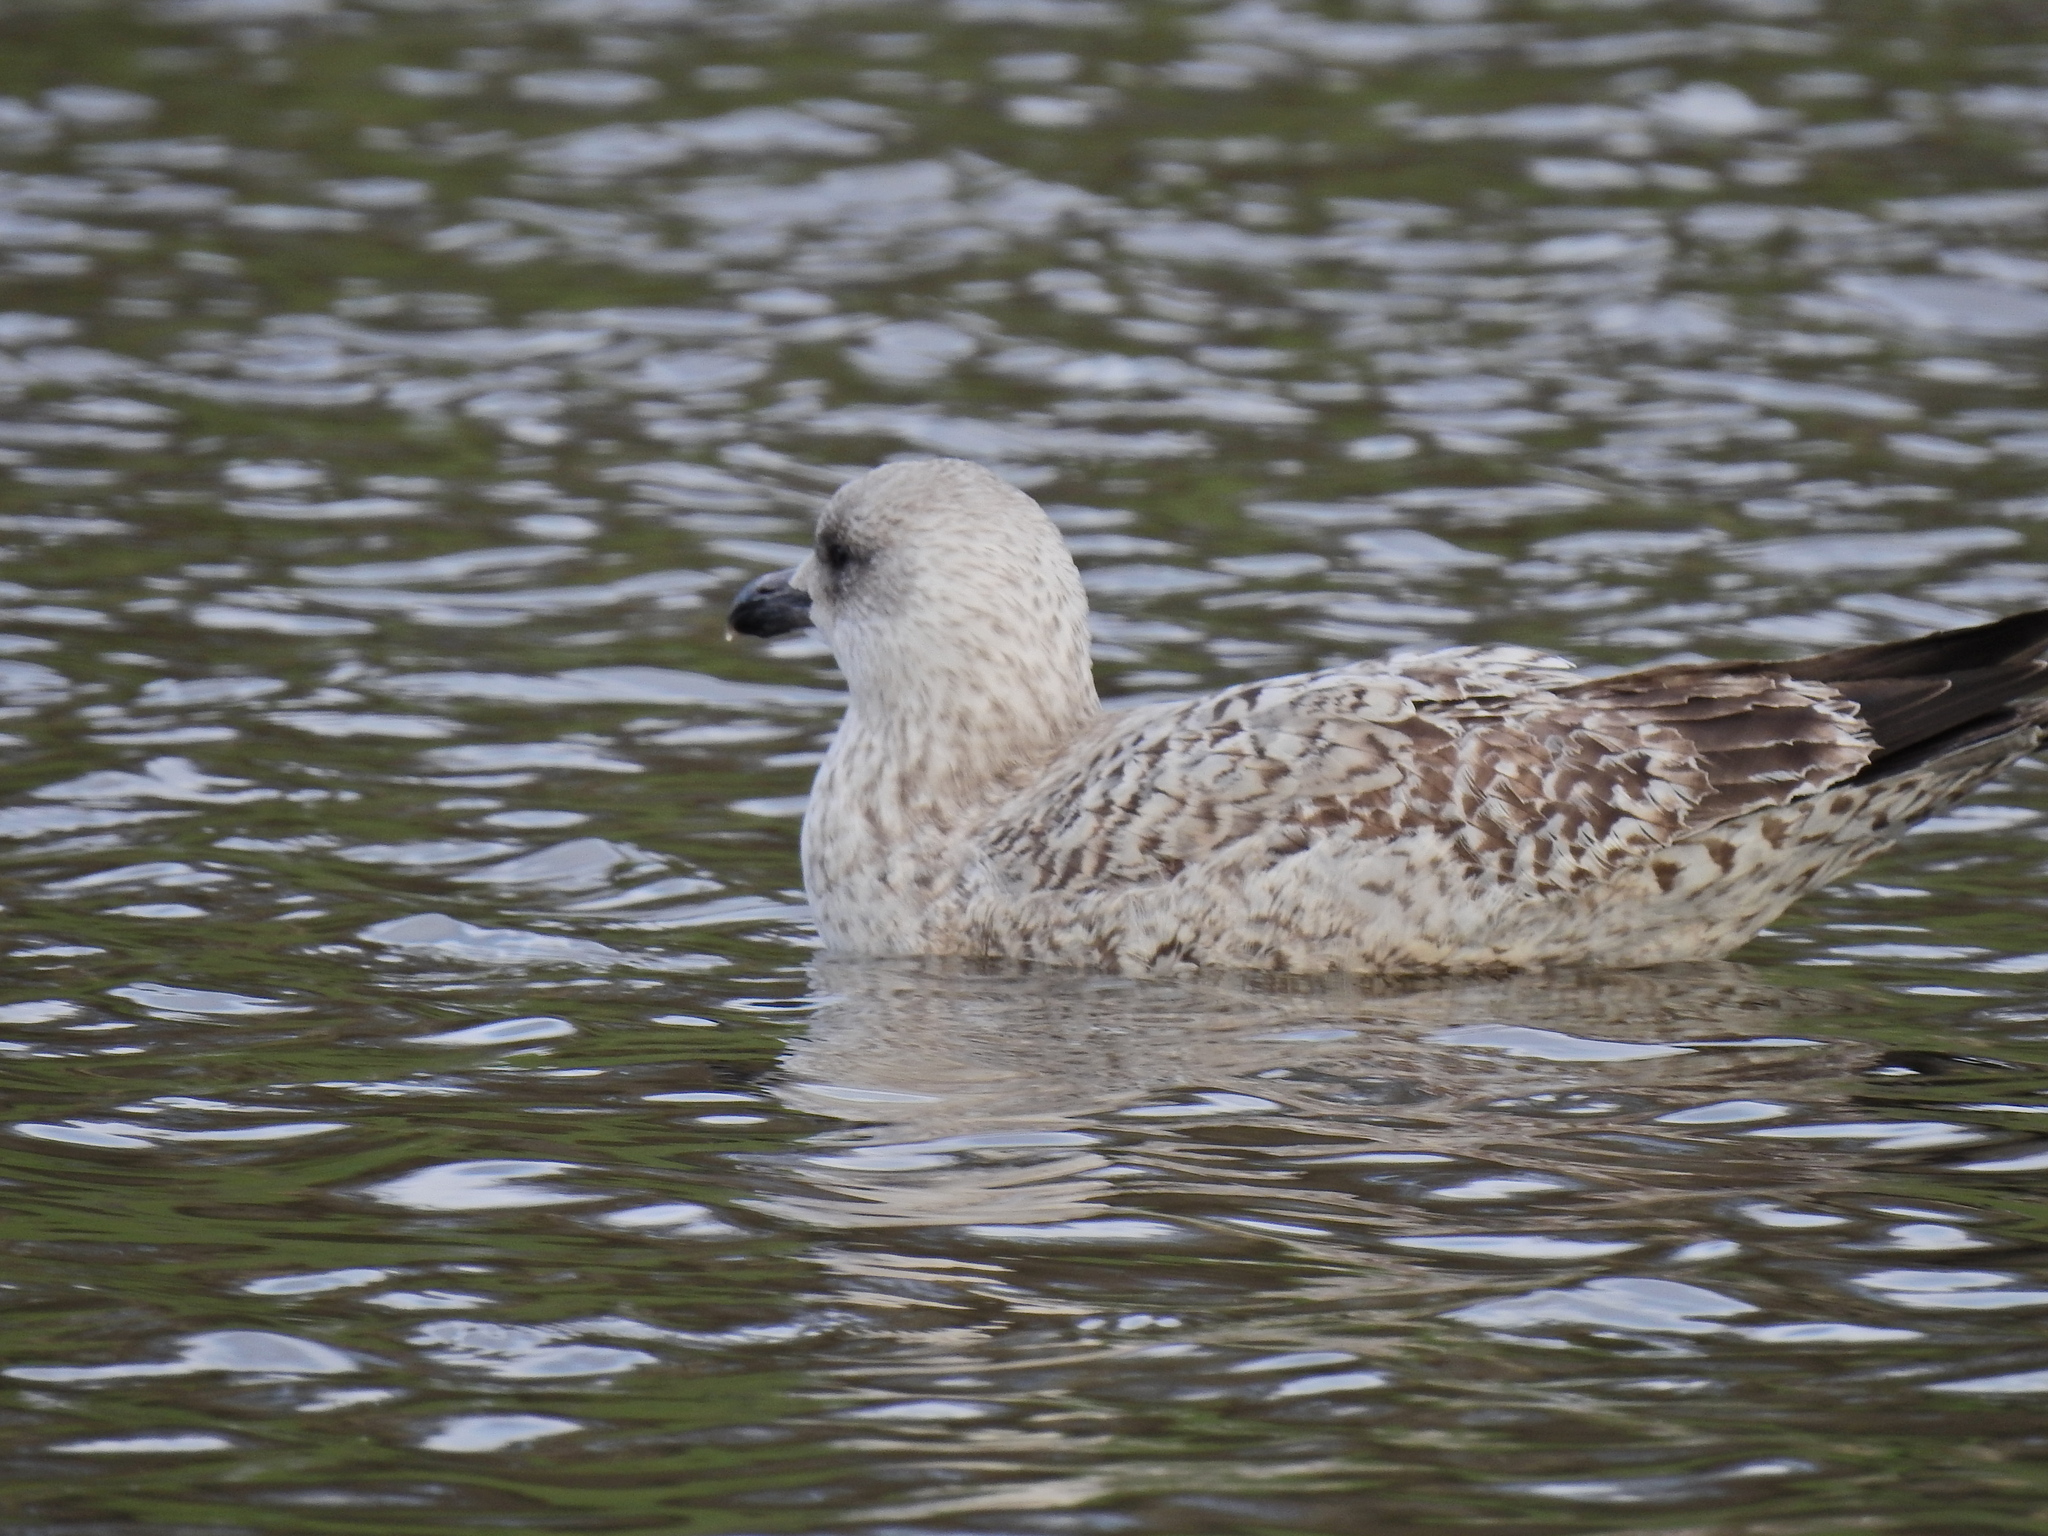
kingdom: Animalia
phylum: Chordata
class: Aves
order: Charadriiformes
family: Laridae
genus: Larus
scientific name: Larus argentatus
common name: Herring gull
